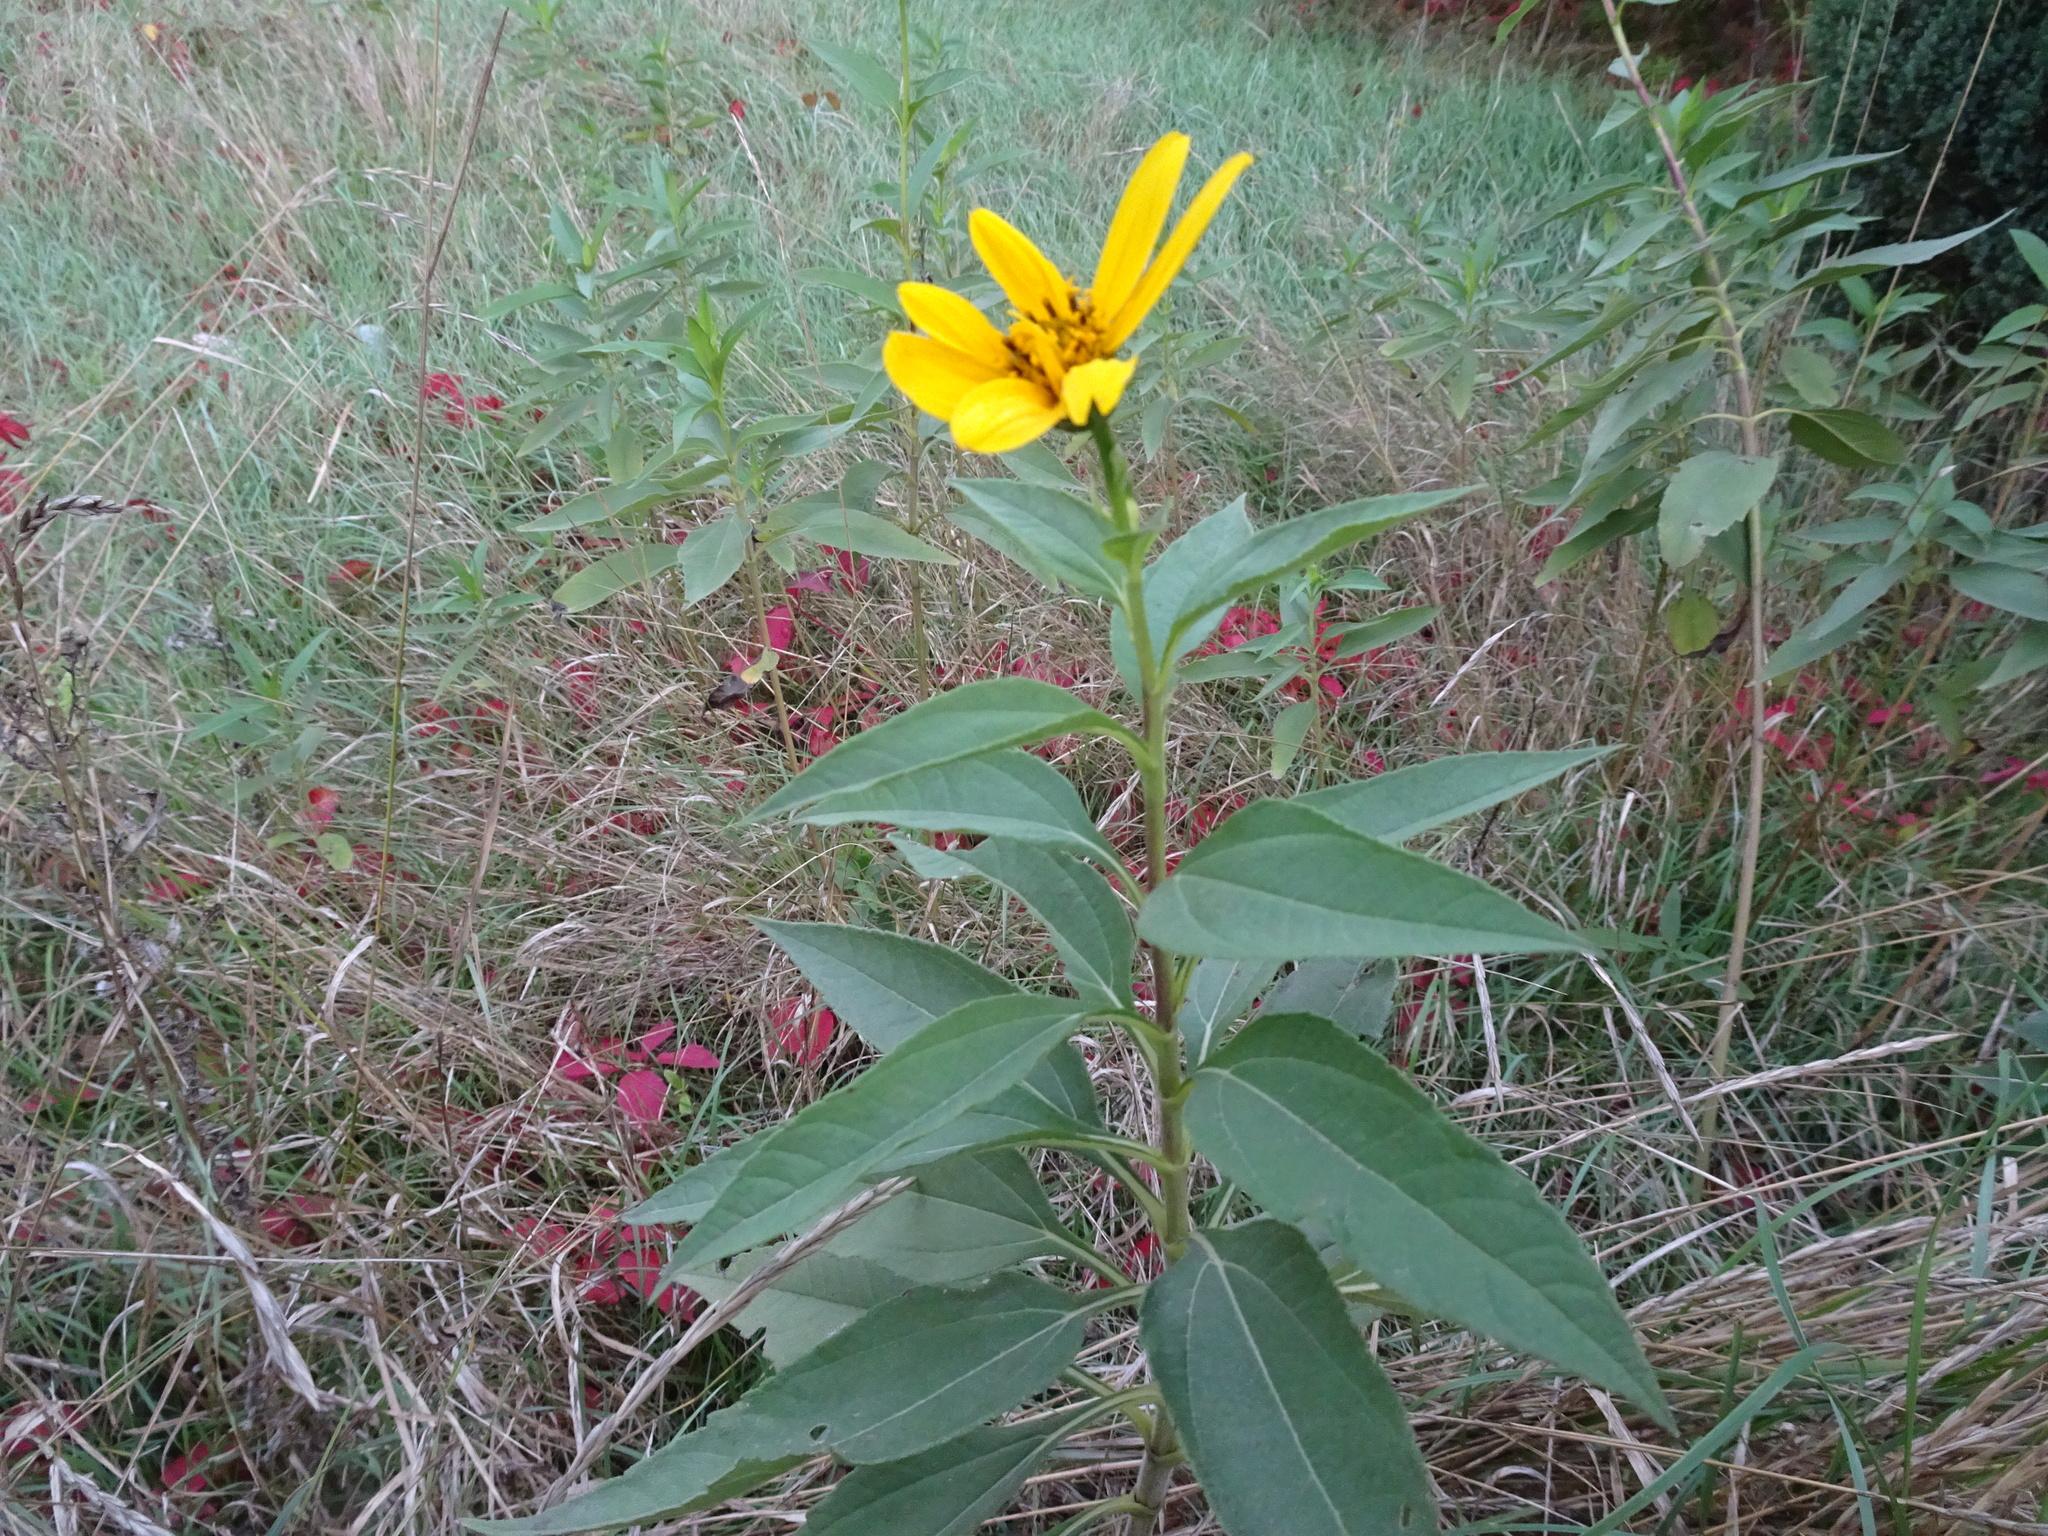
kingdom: Plantae
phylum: Tracheophyta
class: Magnoliopsida
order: Asterales
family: Asteraceae
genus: Helianthus
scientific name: Helianthus tuberosus
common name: Jerusalem artichoke
